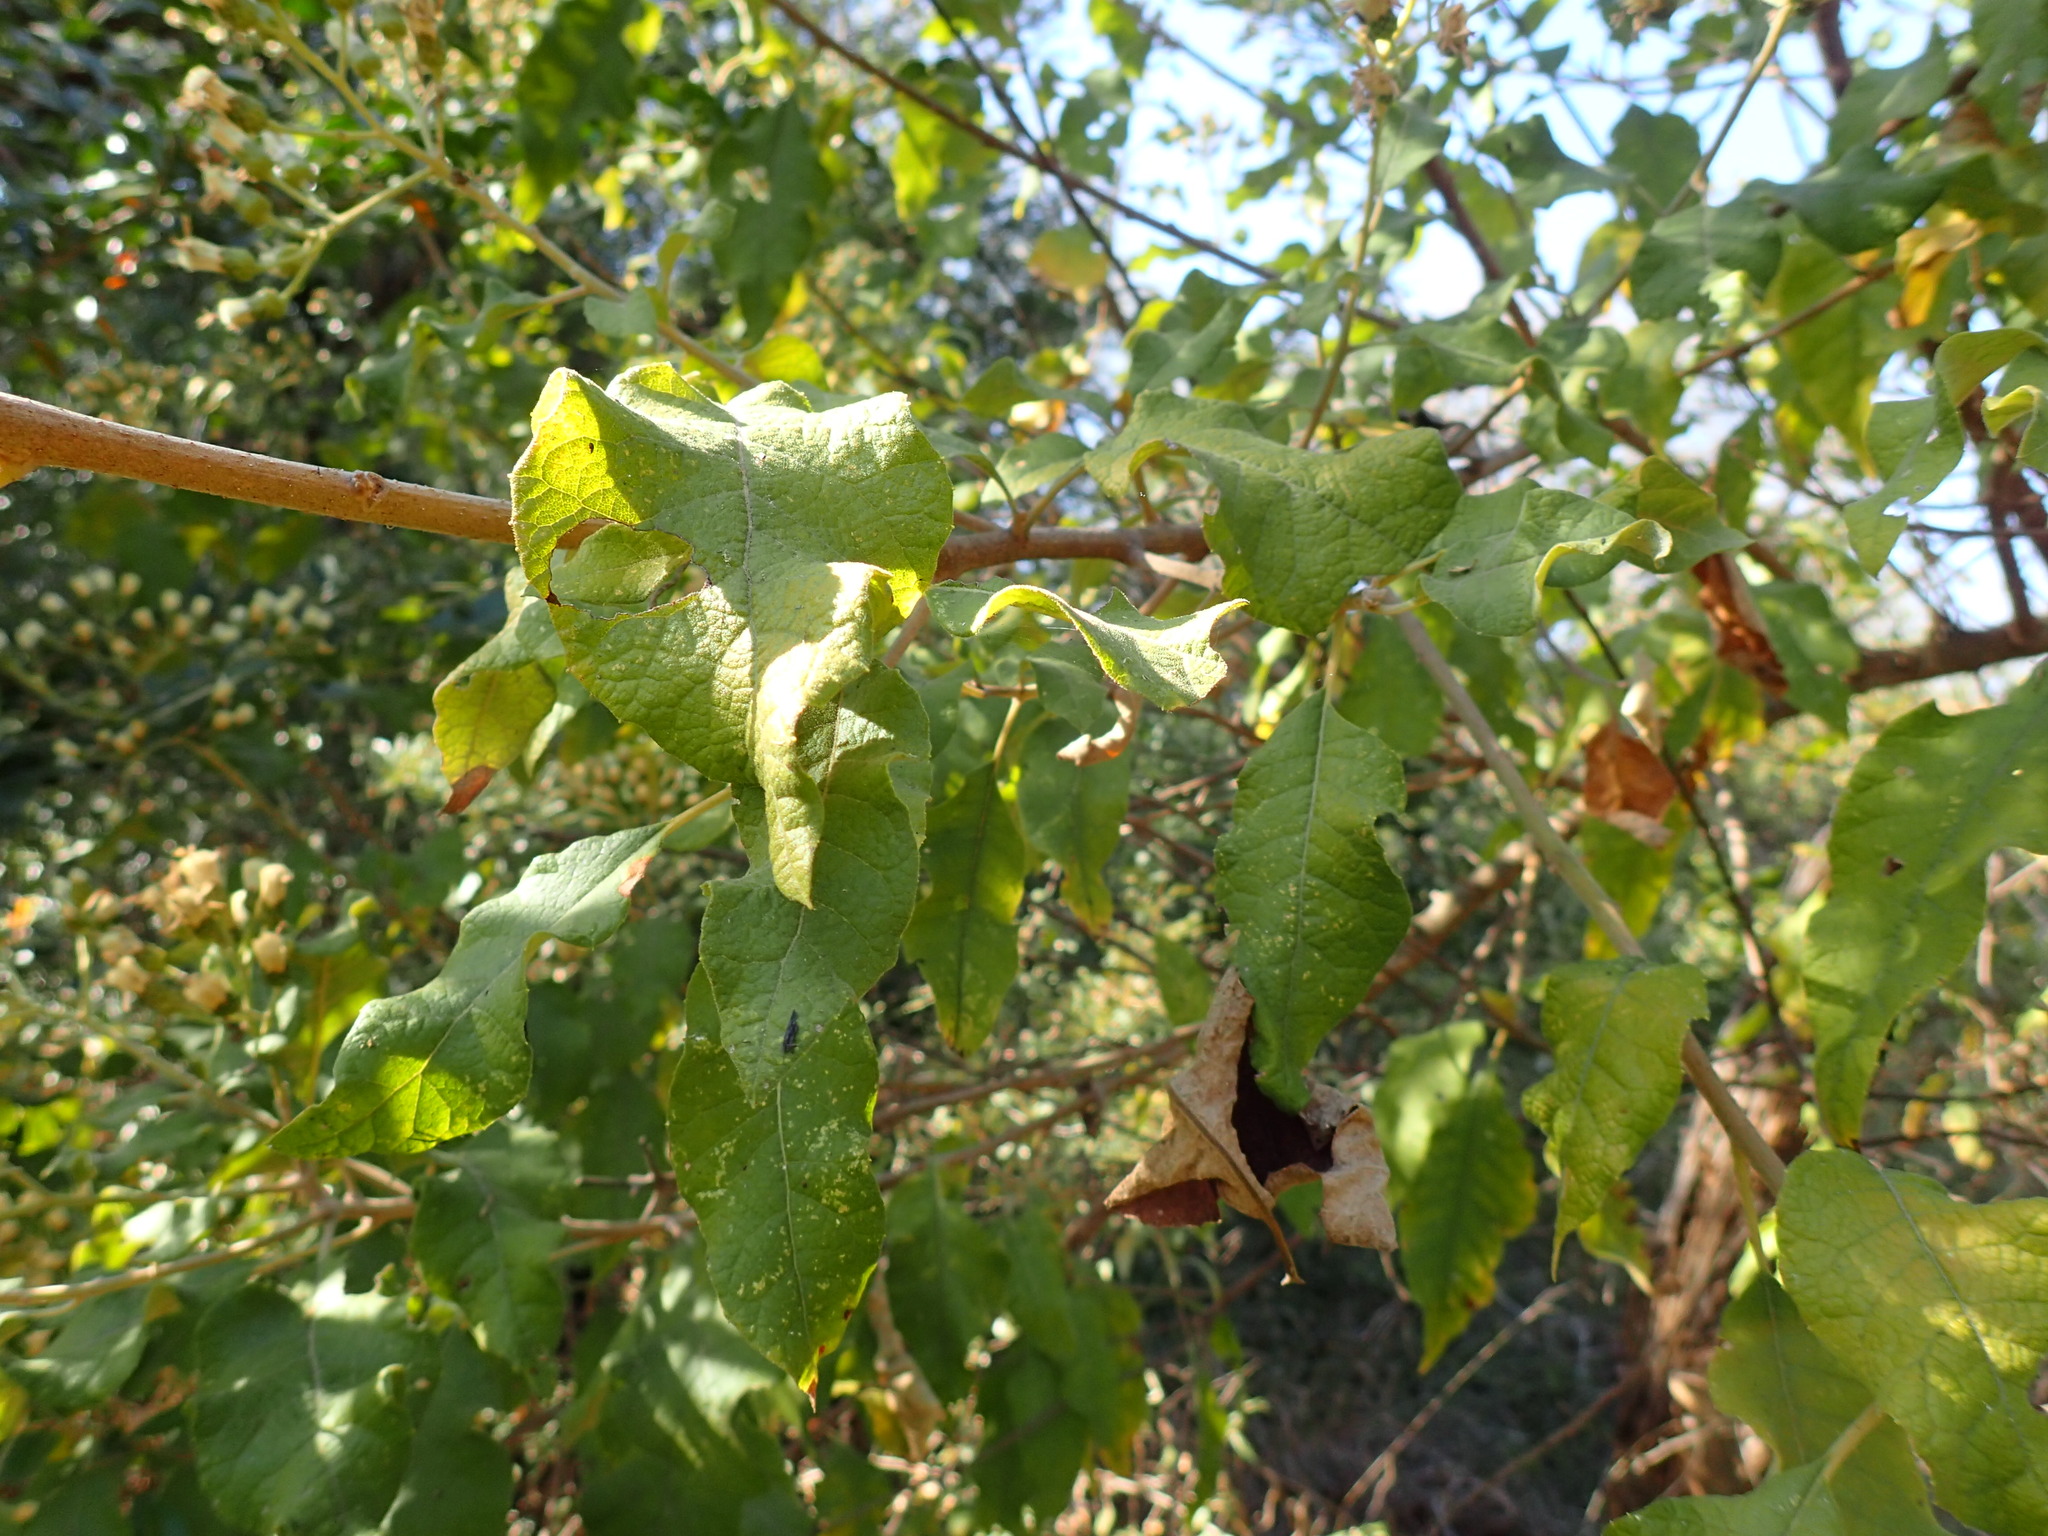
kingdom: Plantae
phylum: Tracheophyta
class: Magnoliopsida
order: Asterales
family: Asteraceae
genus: Vernonia
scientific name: Vernonia colorata
